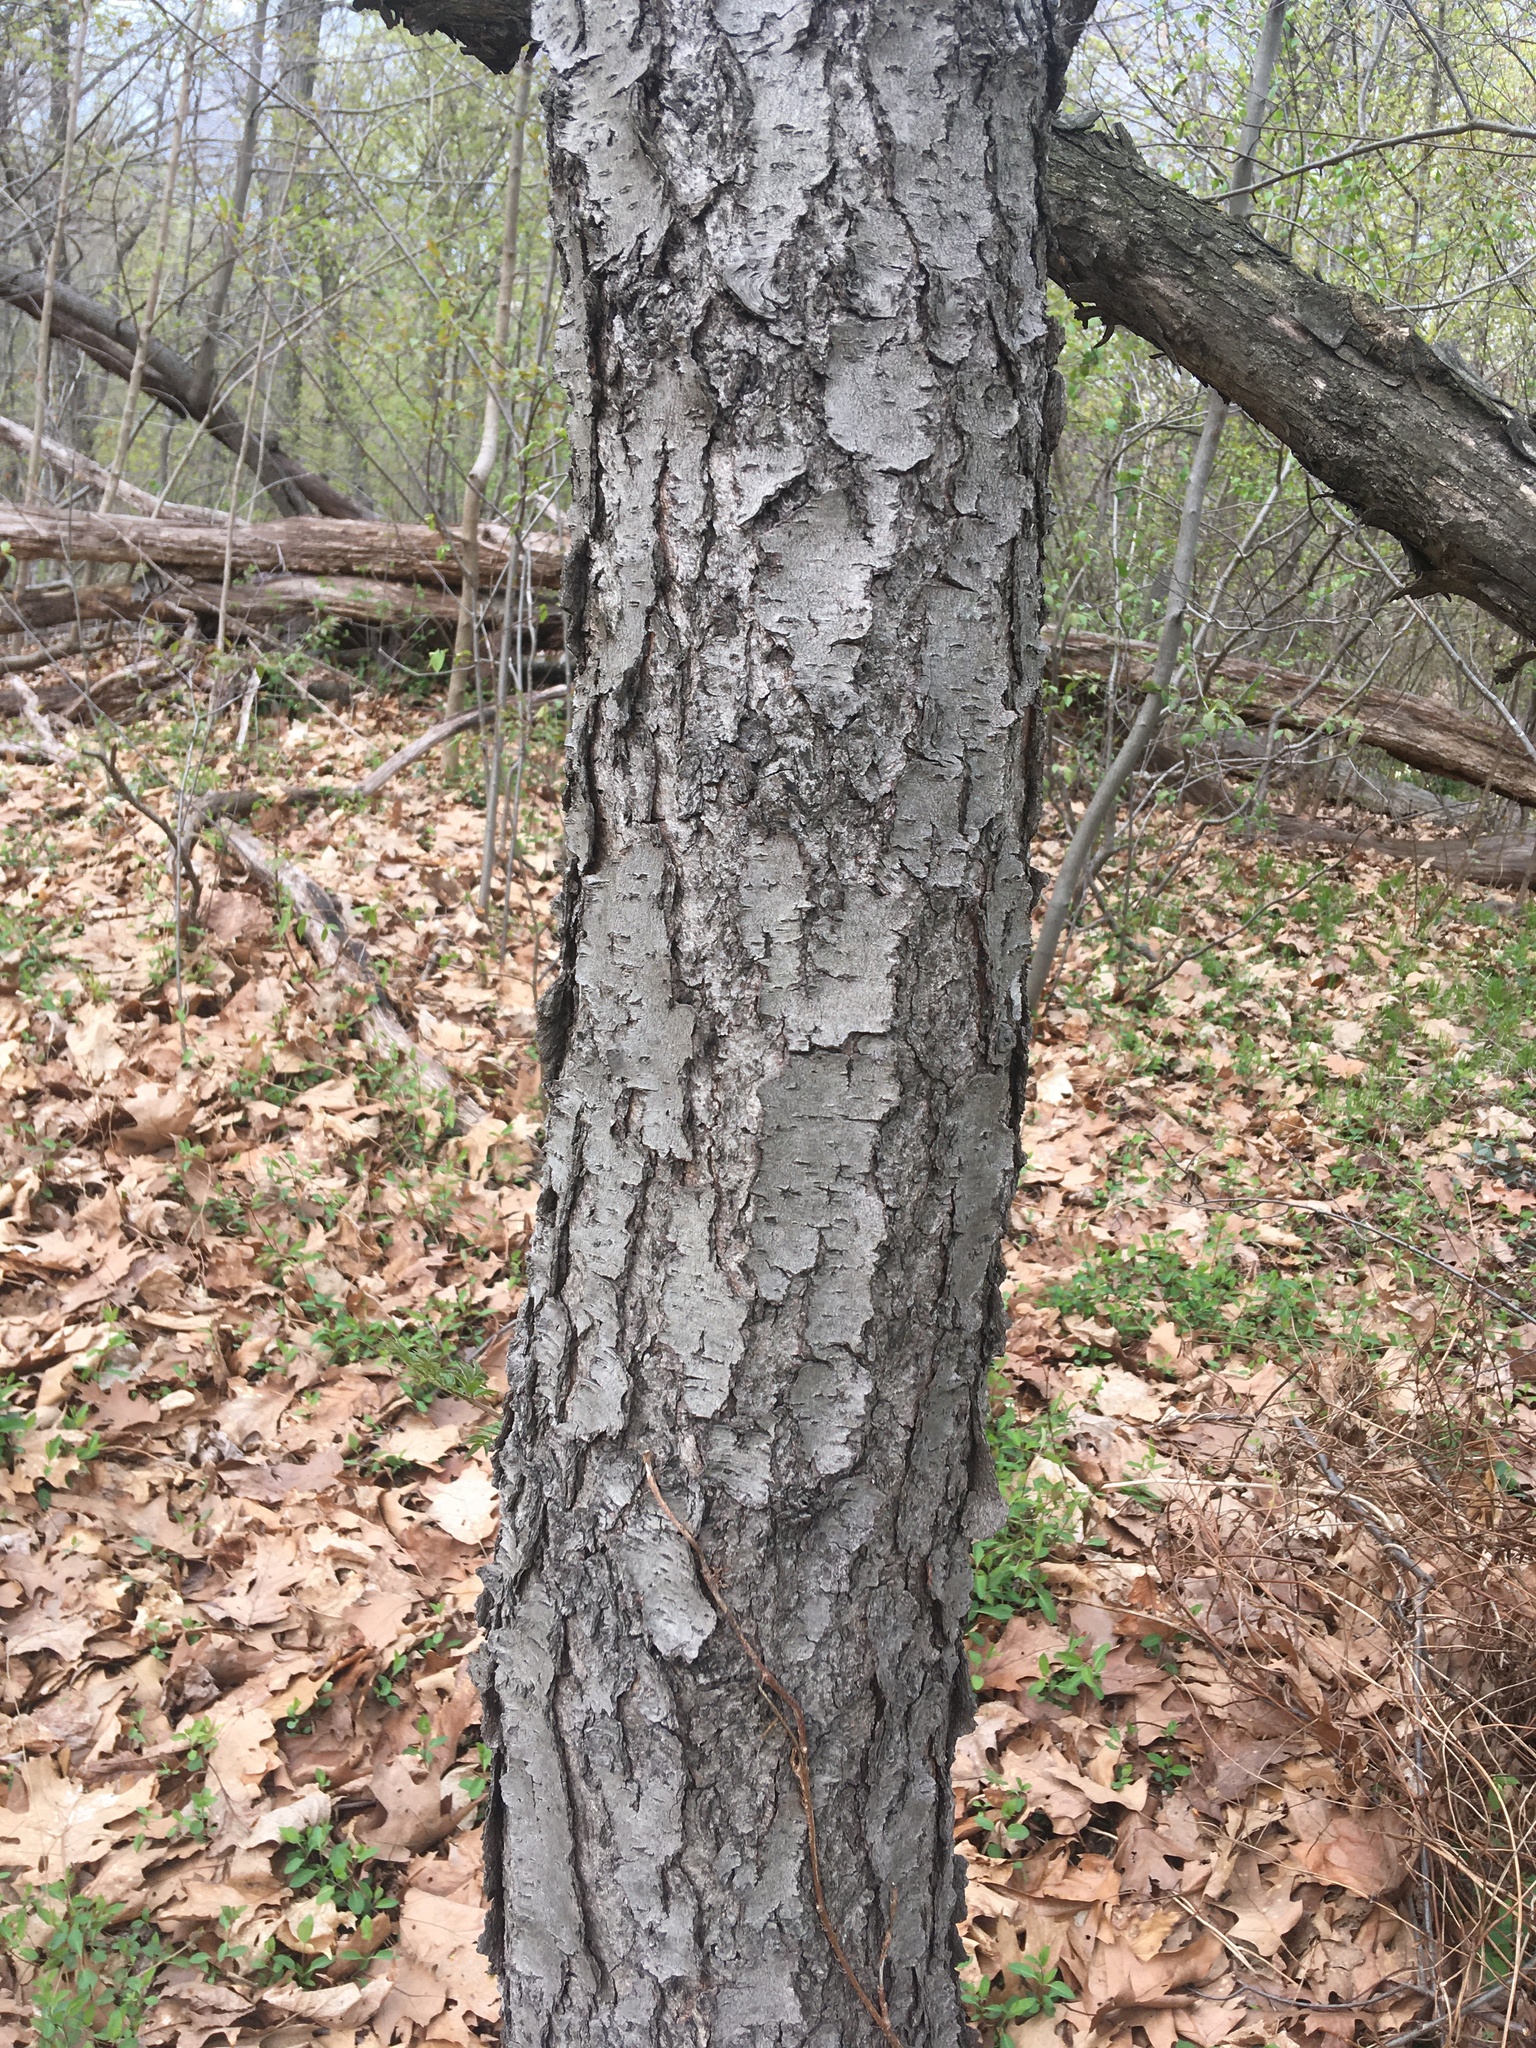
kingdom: Plantae
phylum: Tracheophyta
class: Magnoliopsida
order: Rosales
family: Rosaceae
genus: Prunus
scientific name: Prunus serotina
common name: Black cherry
